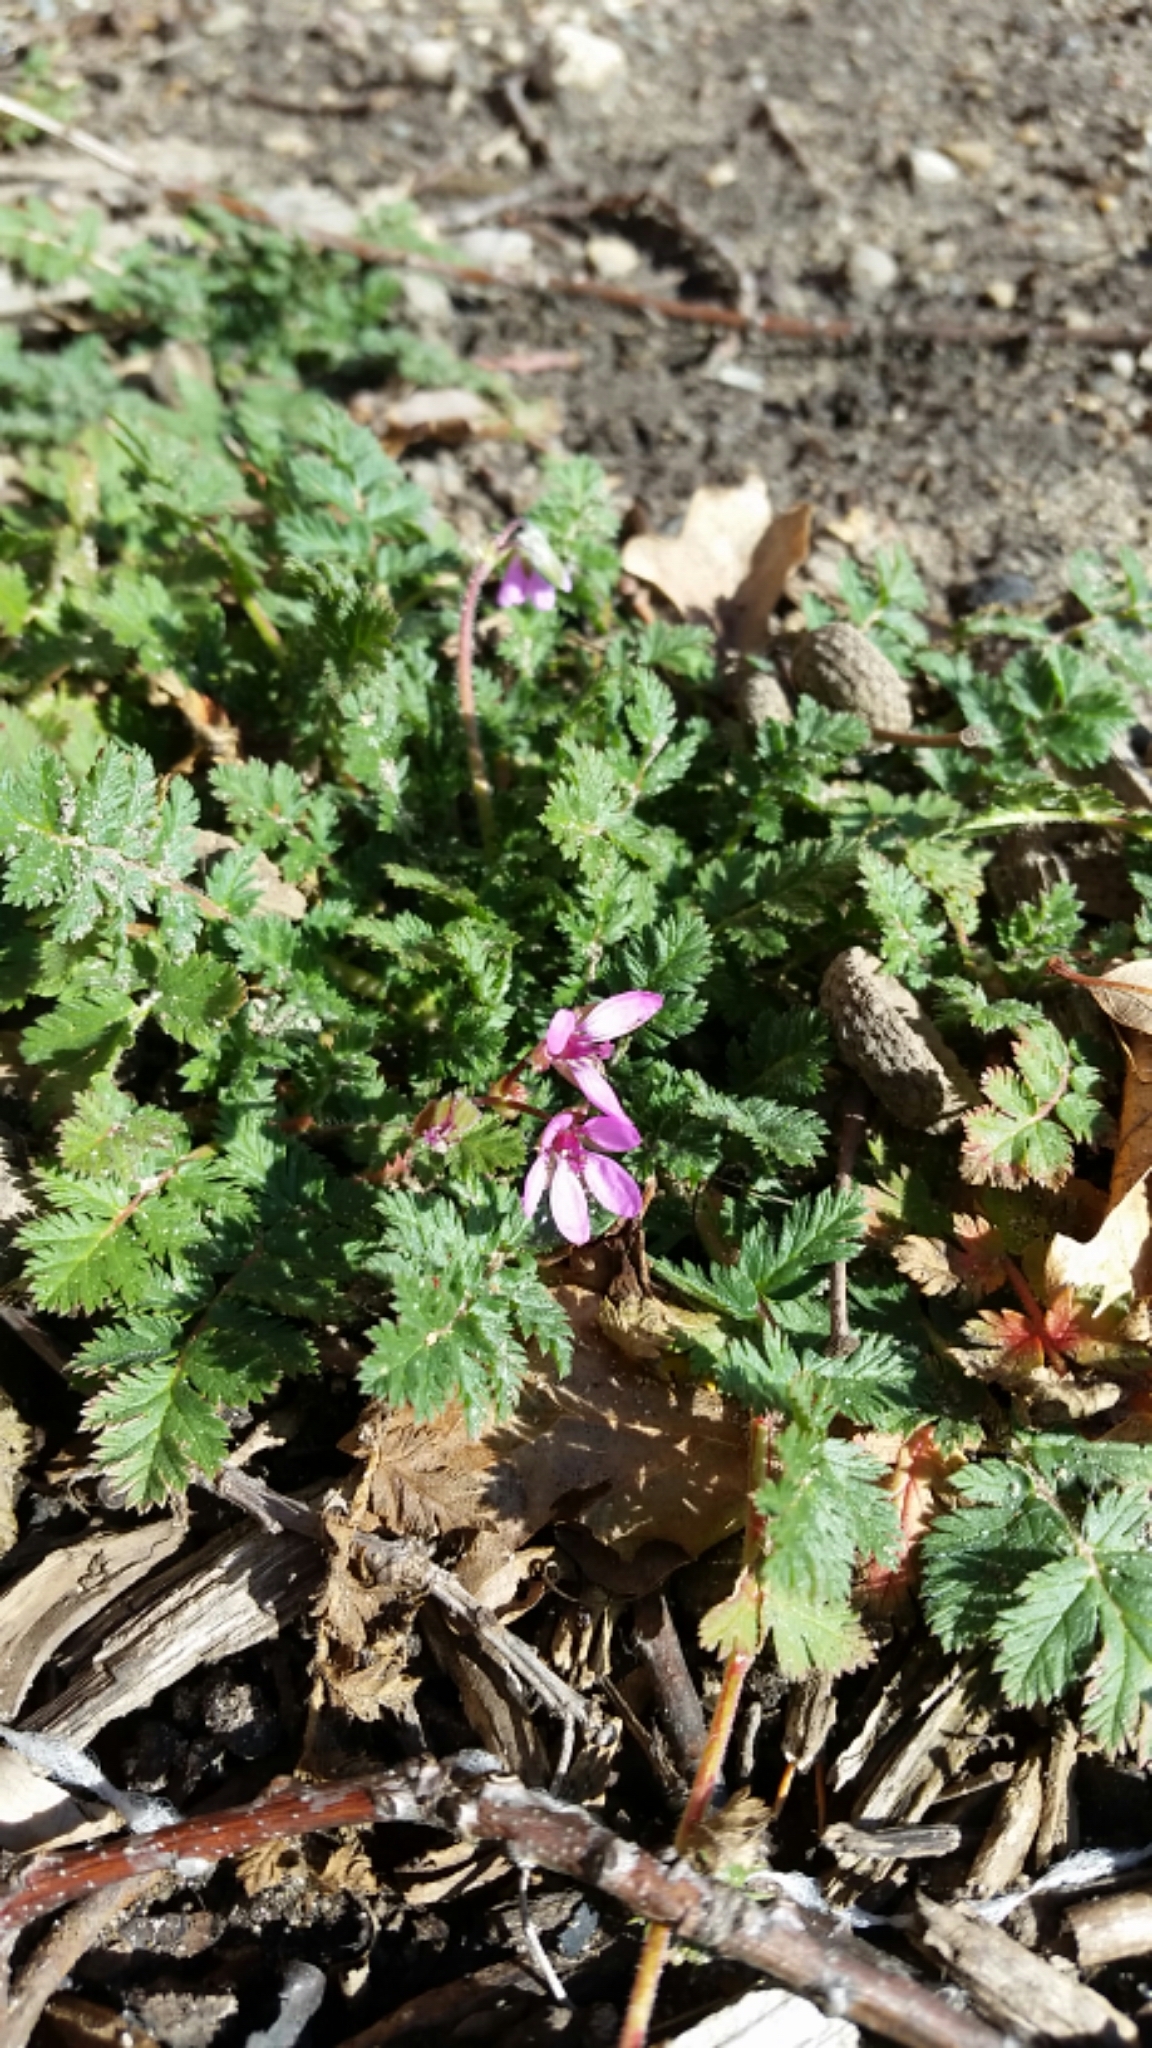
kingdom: Plantae
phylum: Tracheophyta
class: Magnoliopsida
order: Geraniales
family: Geraniaceae
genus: Erodium
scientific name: Erodium cicutarium
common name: Common stork's-bill
